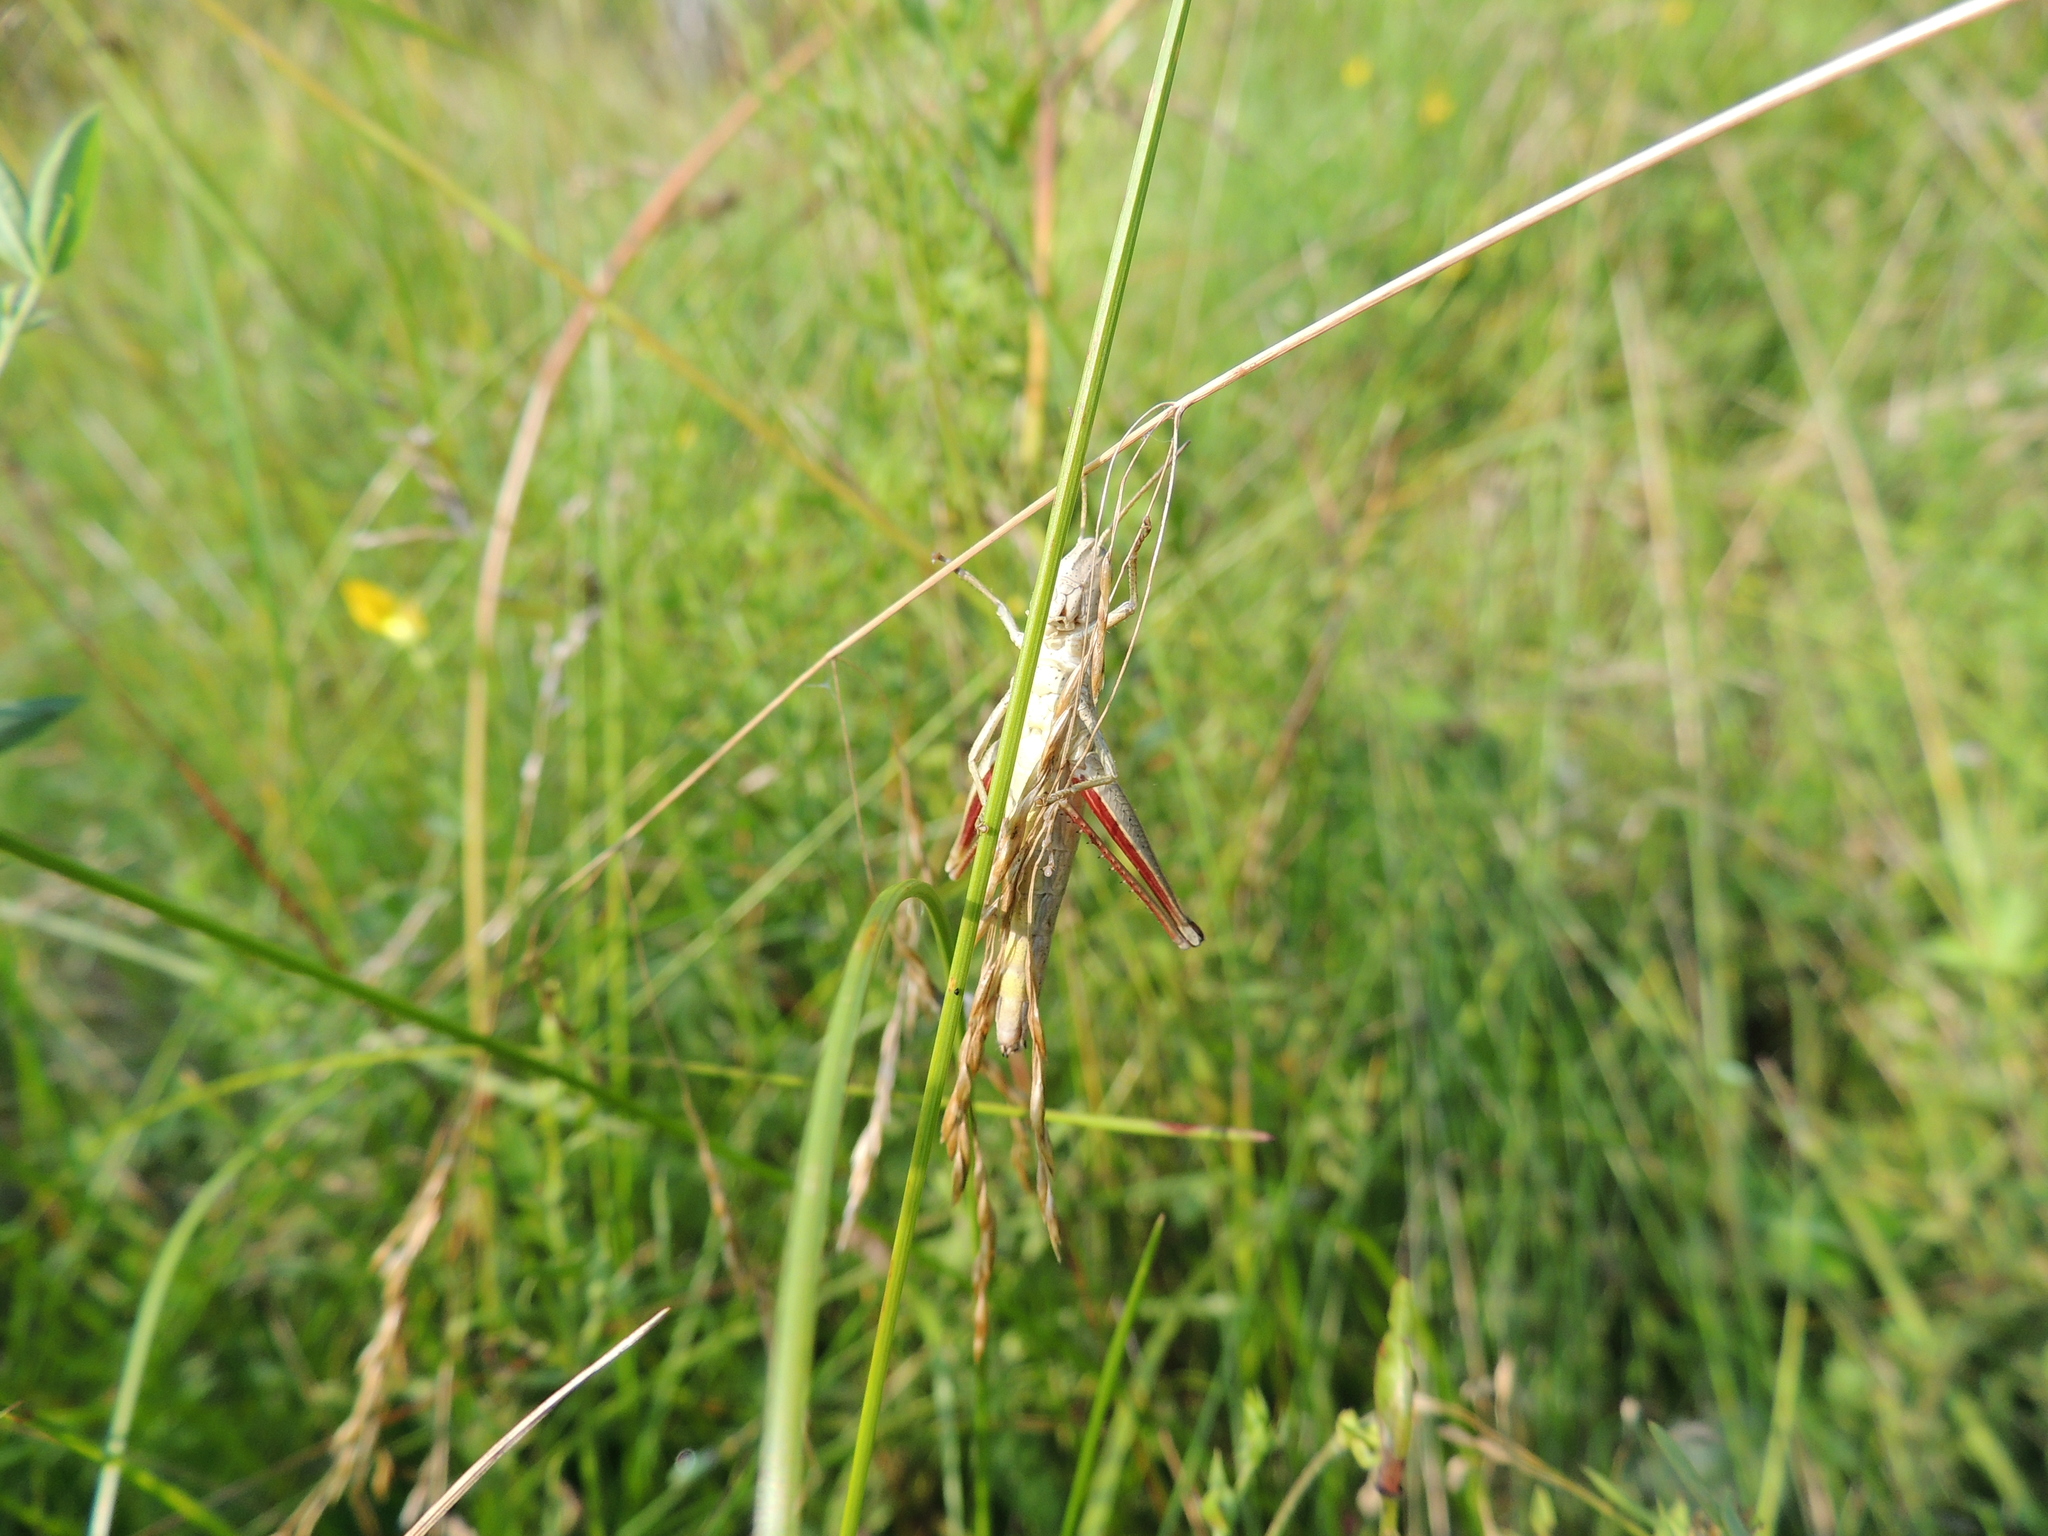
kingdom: Animalia
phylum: Arthropoda
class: Insecta
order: Orthoptera
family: Acrididae
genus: Chrysochraon
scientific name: Chrysochraon dispar
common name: Large gold grasshopper
